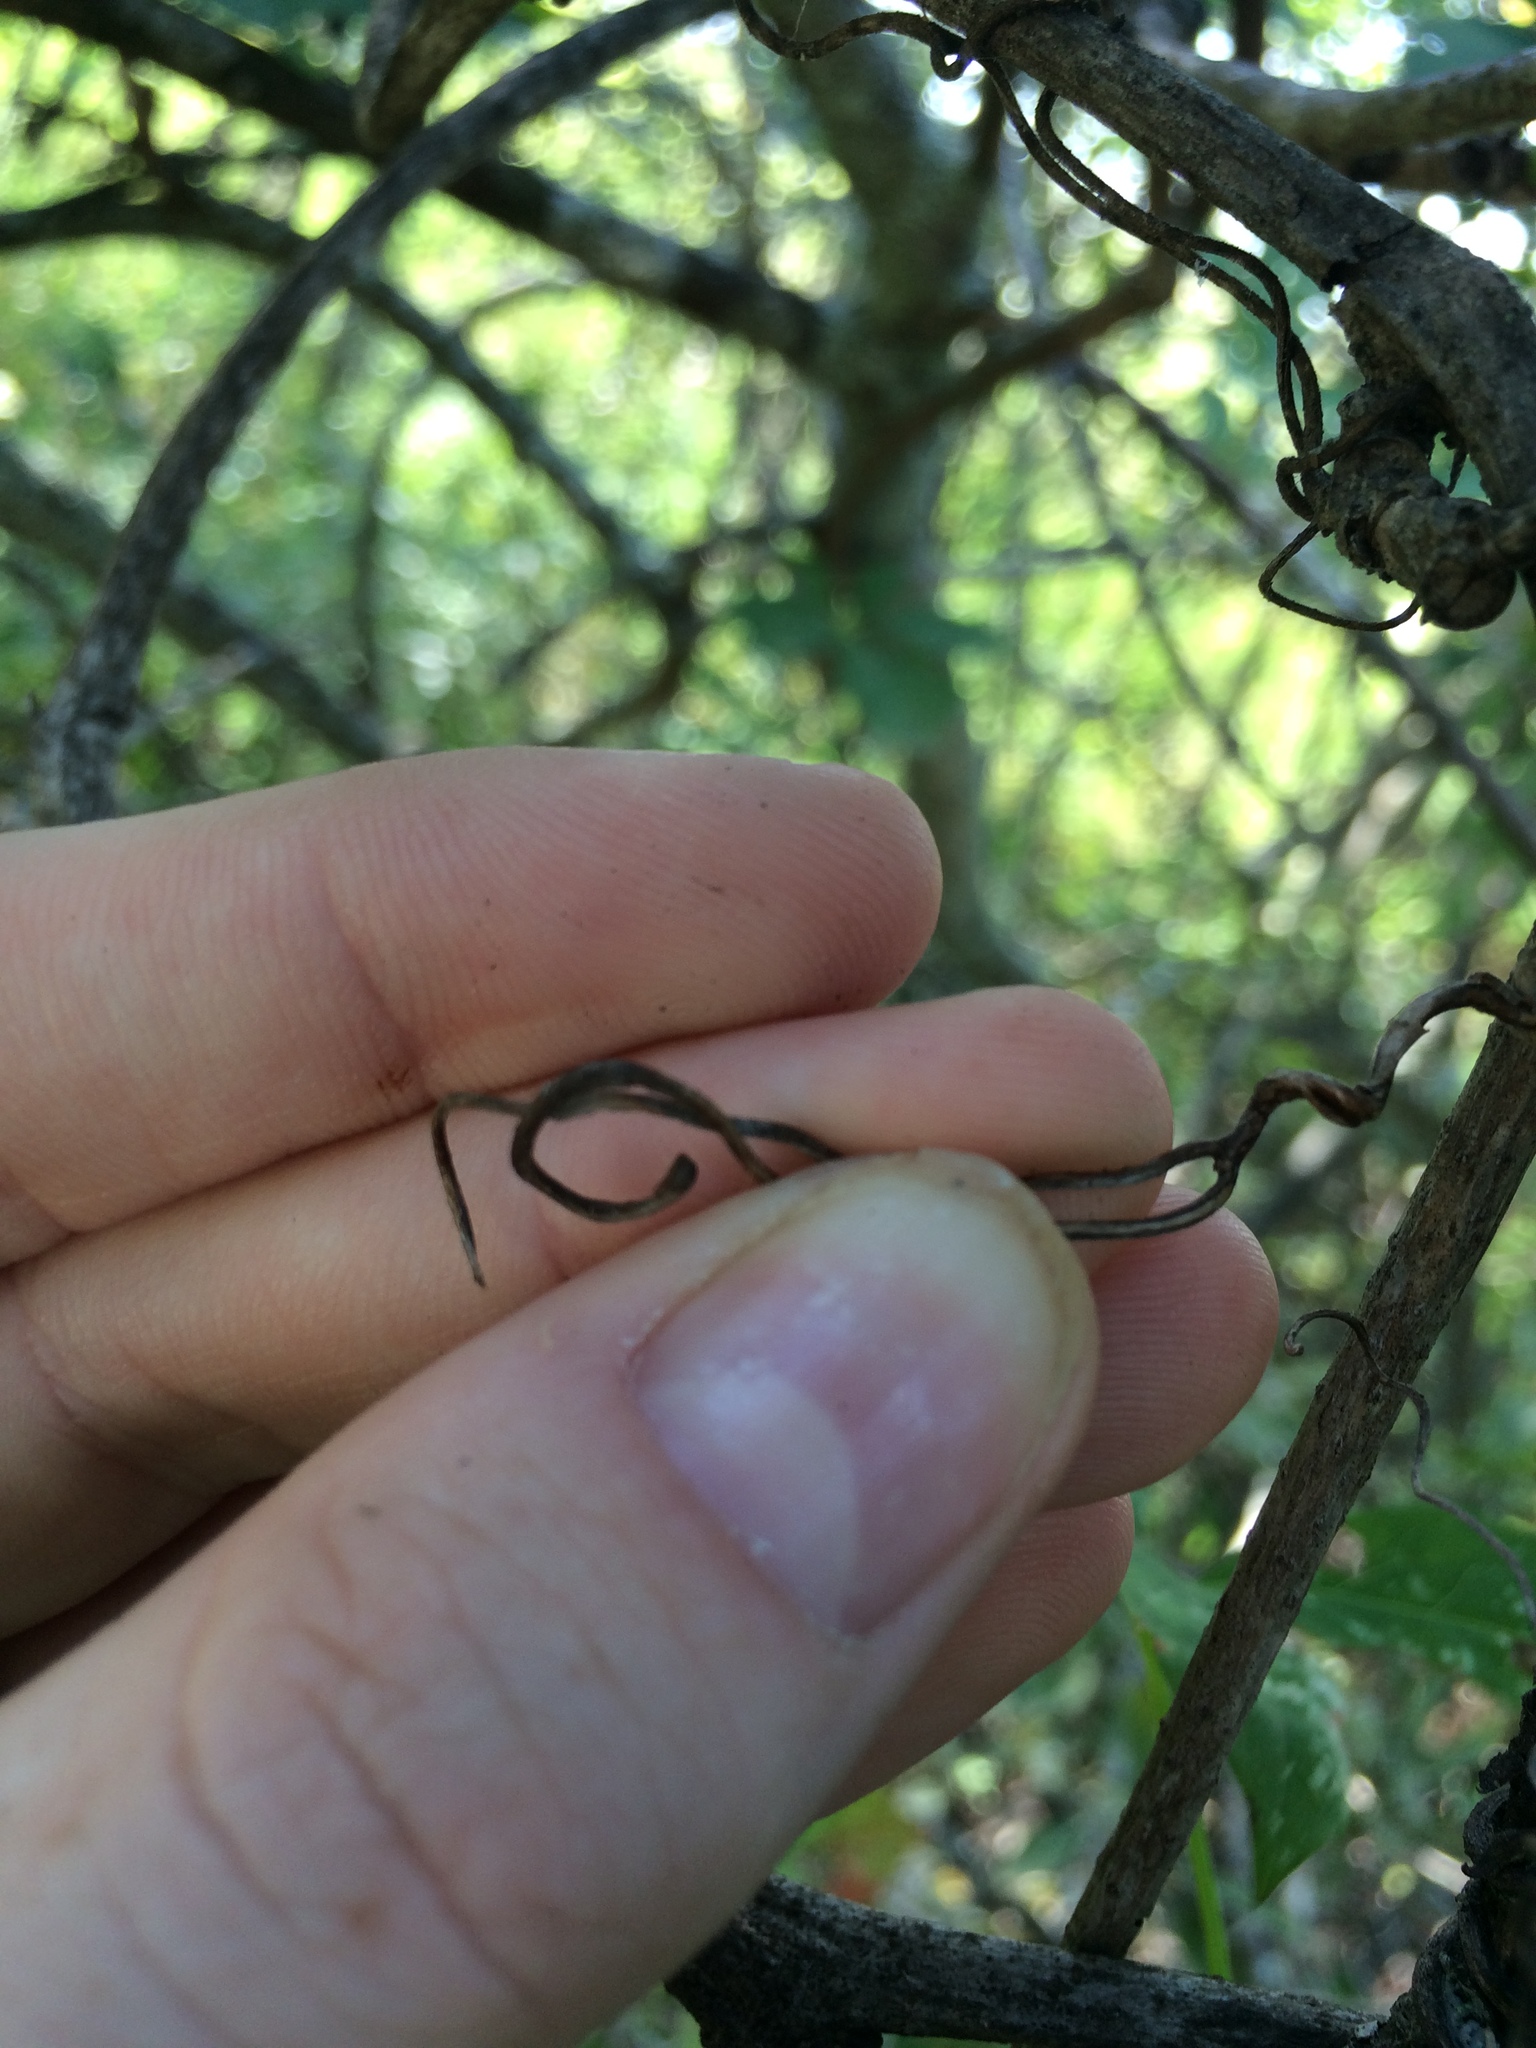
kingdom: Plantae
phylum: Tracheophyta
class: Magnoliopsida
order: Vitales
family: Vitaceae
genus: Parthenocissus
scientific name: Parthenocissus inserta
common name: False virginia-creeper
